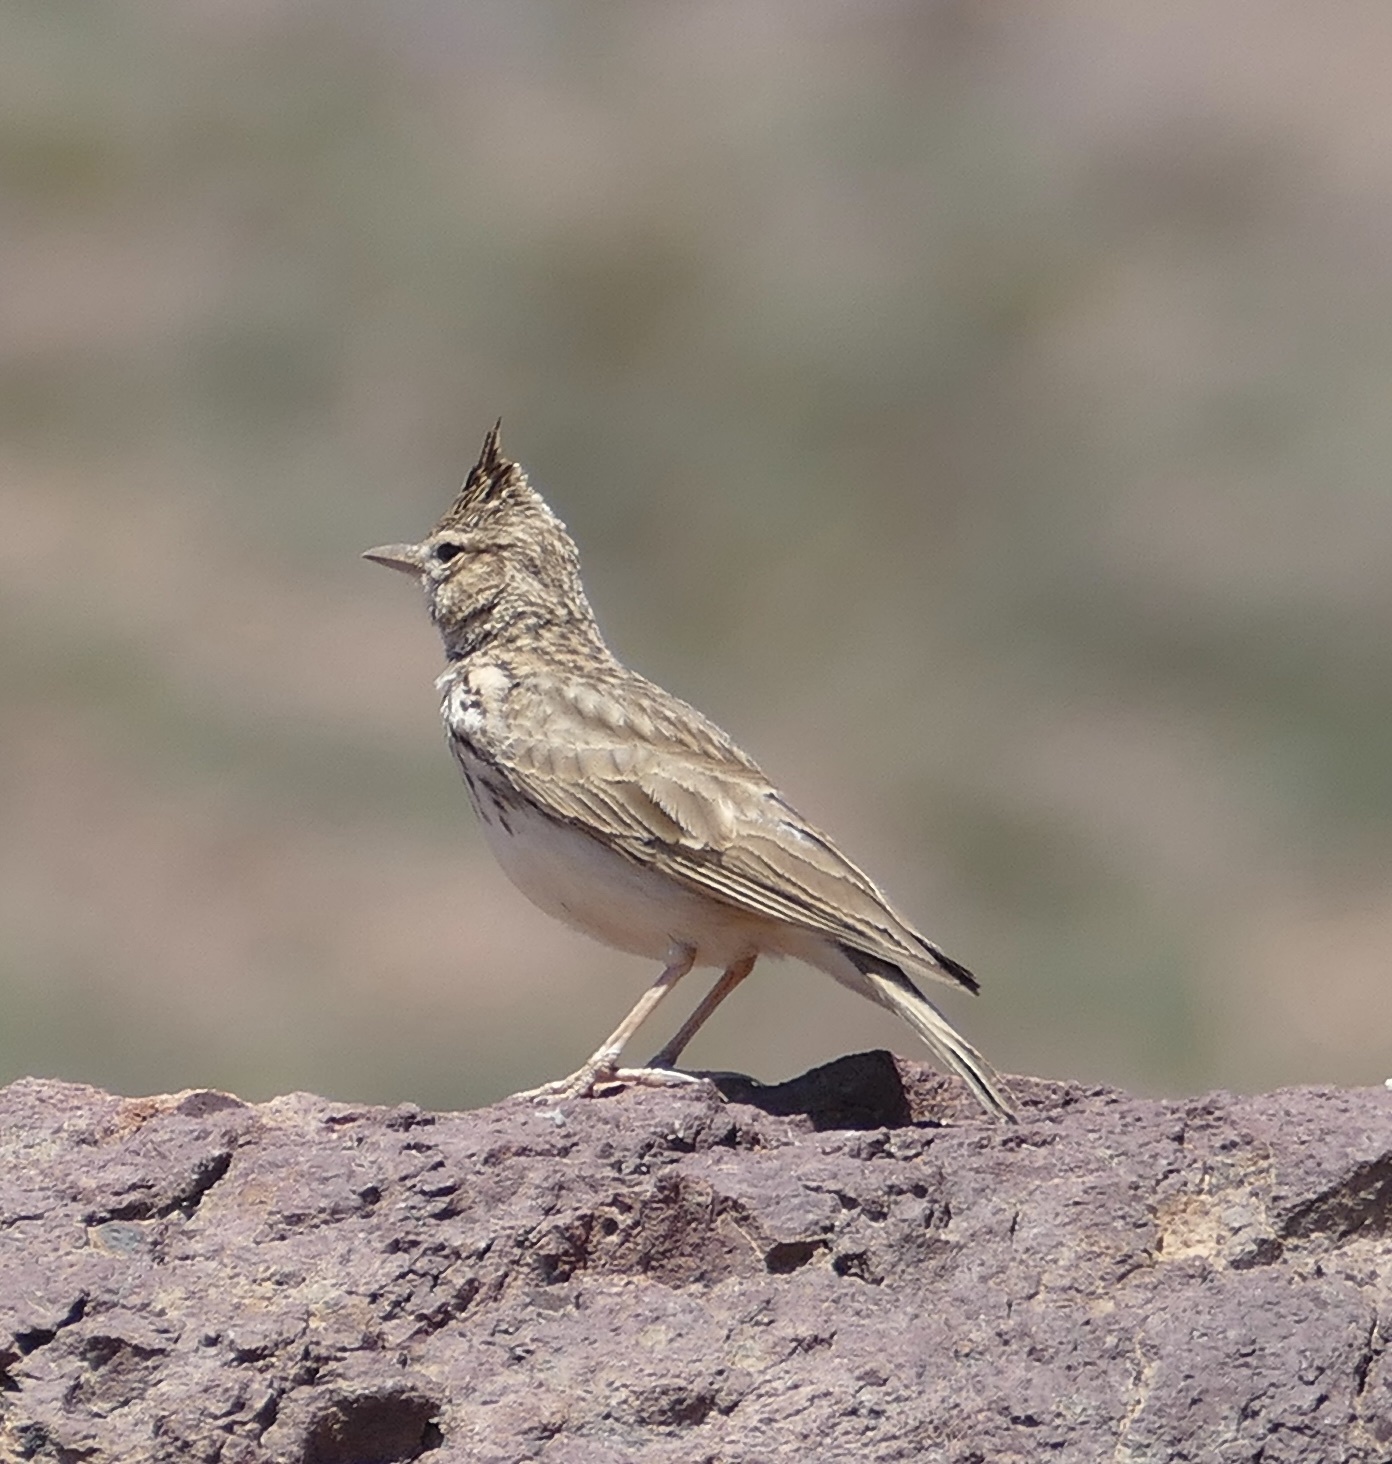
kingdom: Animalia
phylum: Chordata
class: Aves
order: Passeriformes
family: Alaudidae
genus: Galerida
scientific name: Galerida theklae
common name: Thekla lark
